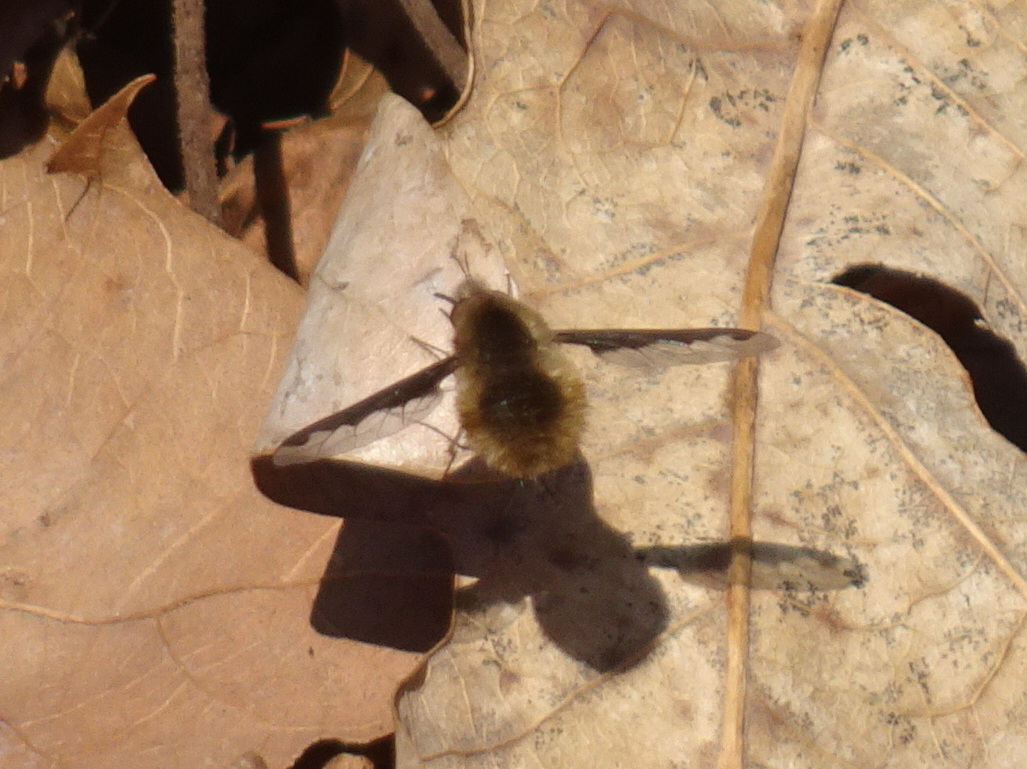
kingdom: Animalia
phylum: Arthropoda
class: Insecta
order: Diptera
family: Bombyliidae
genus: Bombylius
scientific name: Bombylius major
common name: Bee fly
